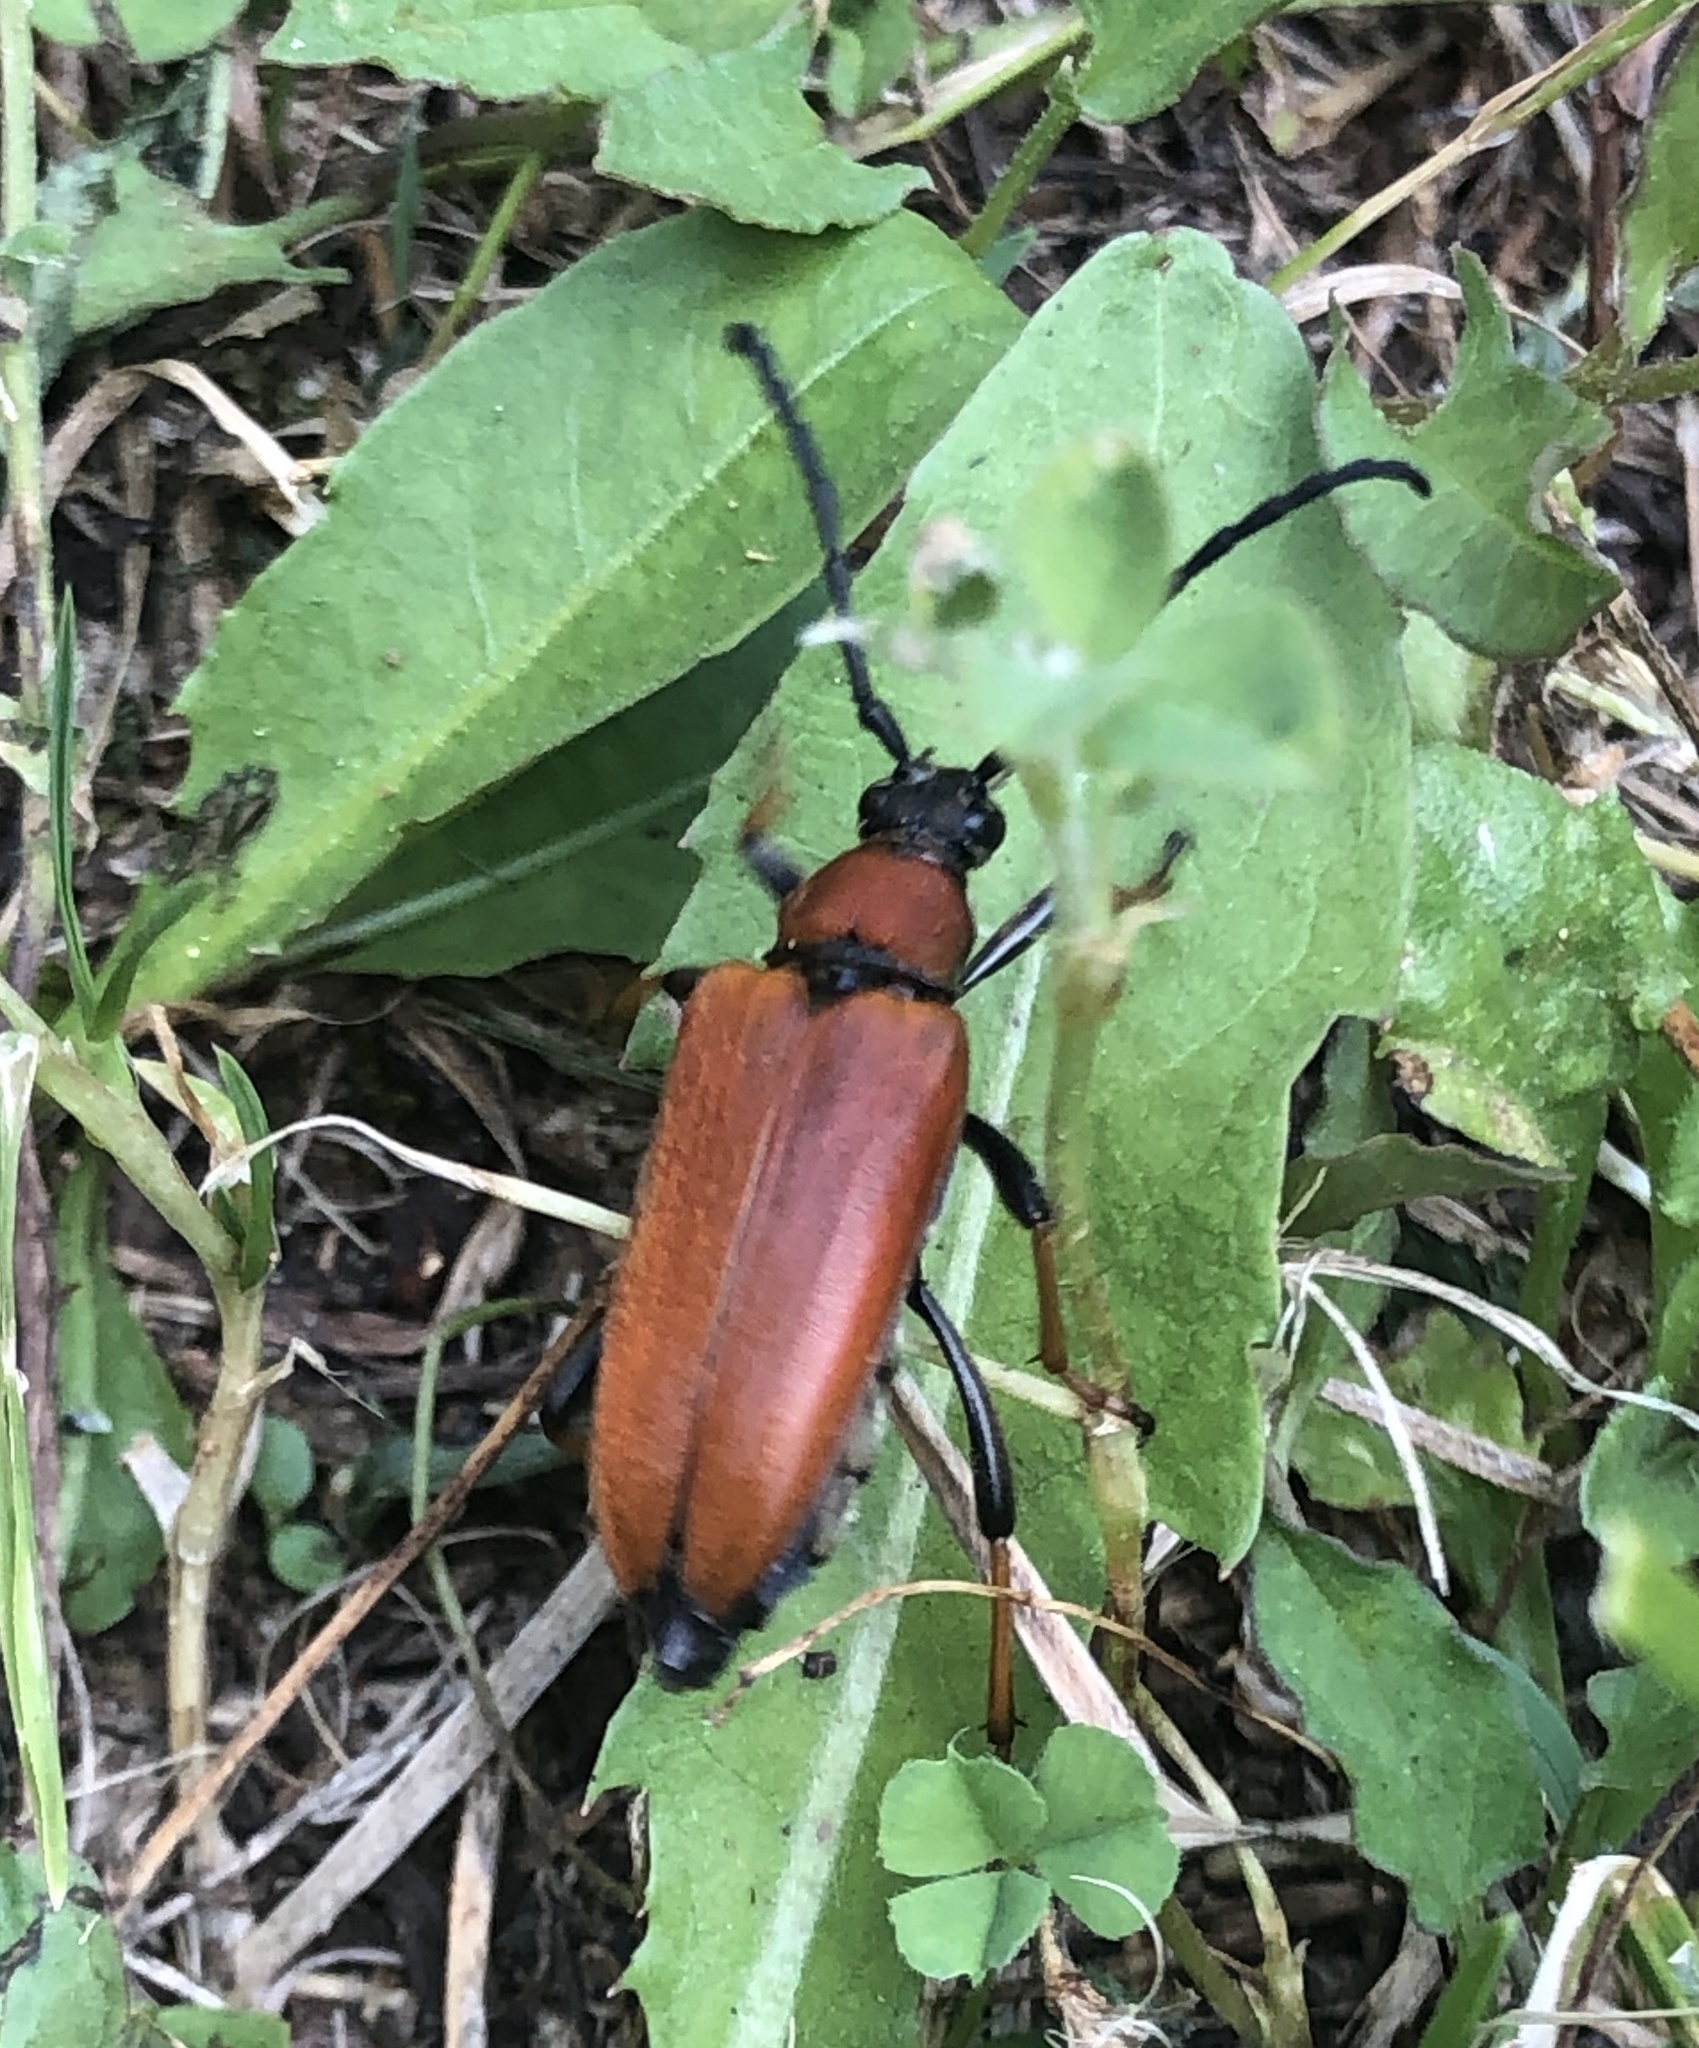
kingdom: Animalia
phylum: Arthropoda
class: Insecta
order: Coleoptera
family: Cerambycidae
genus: Stictoleptura
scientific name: Stictoleptura rubra
